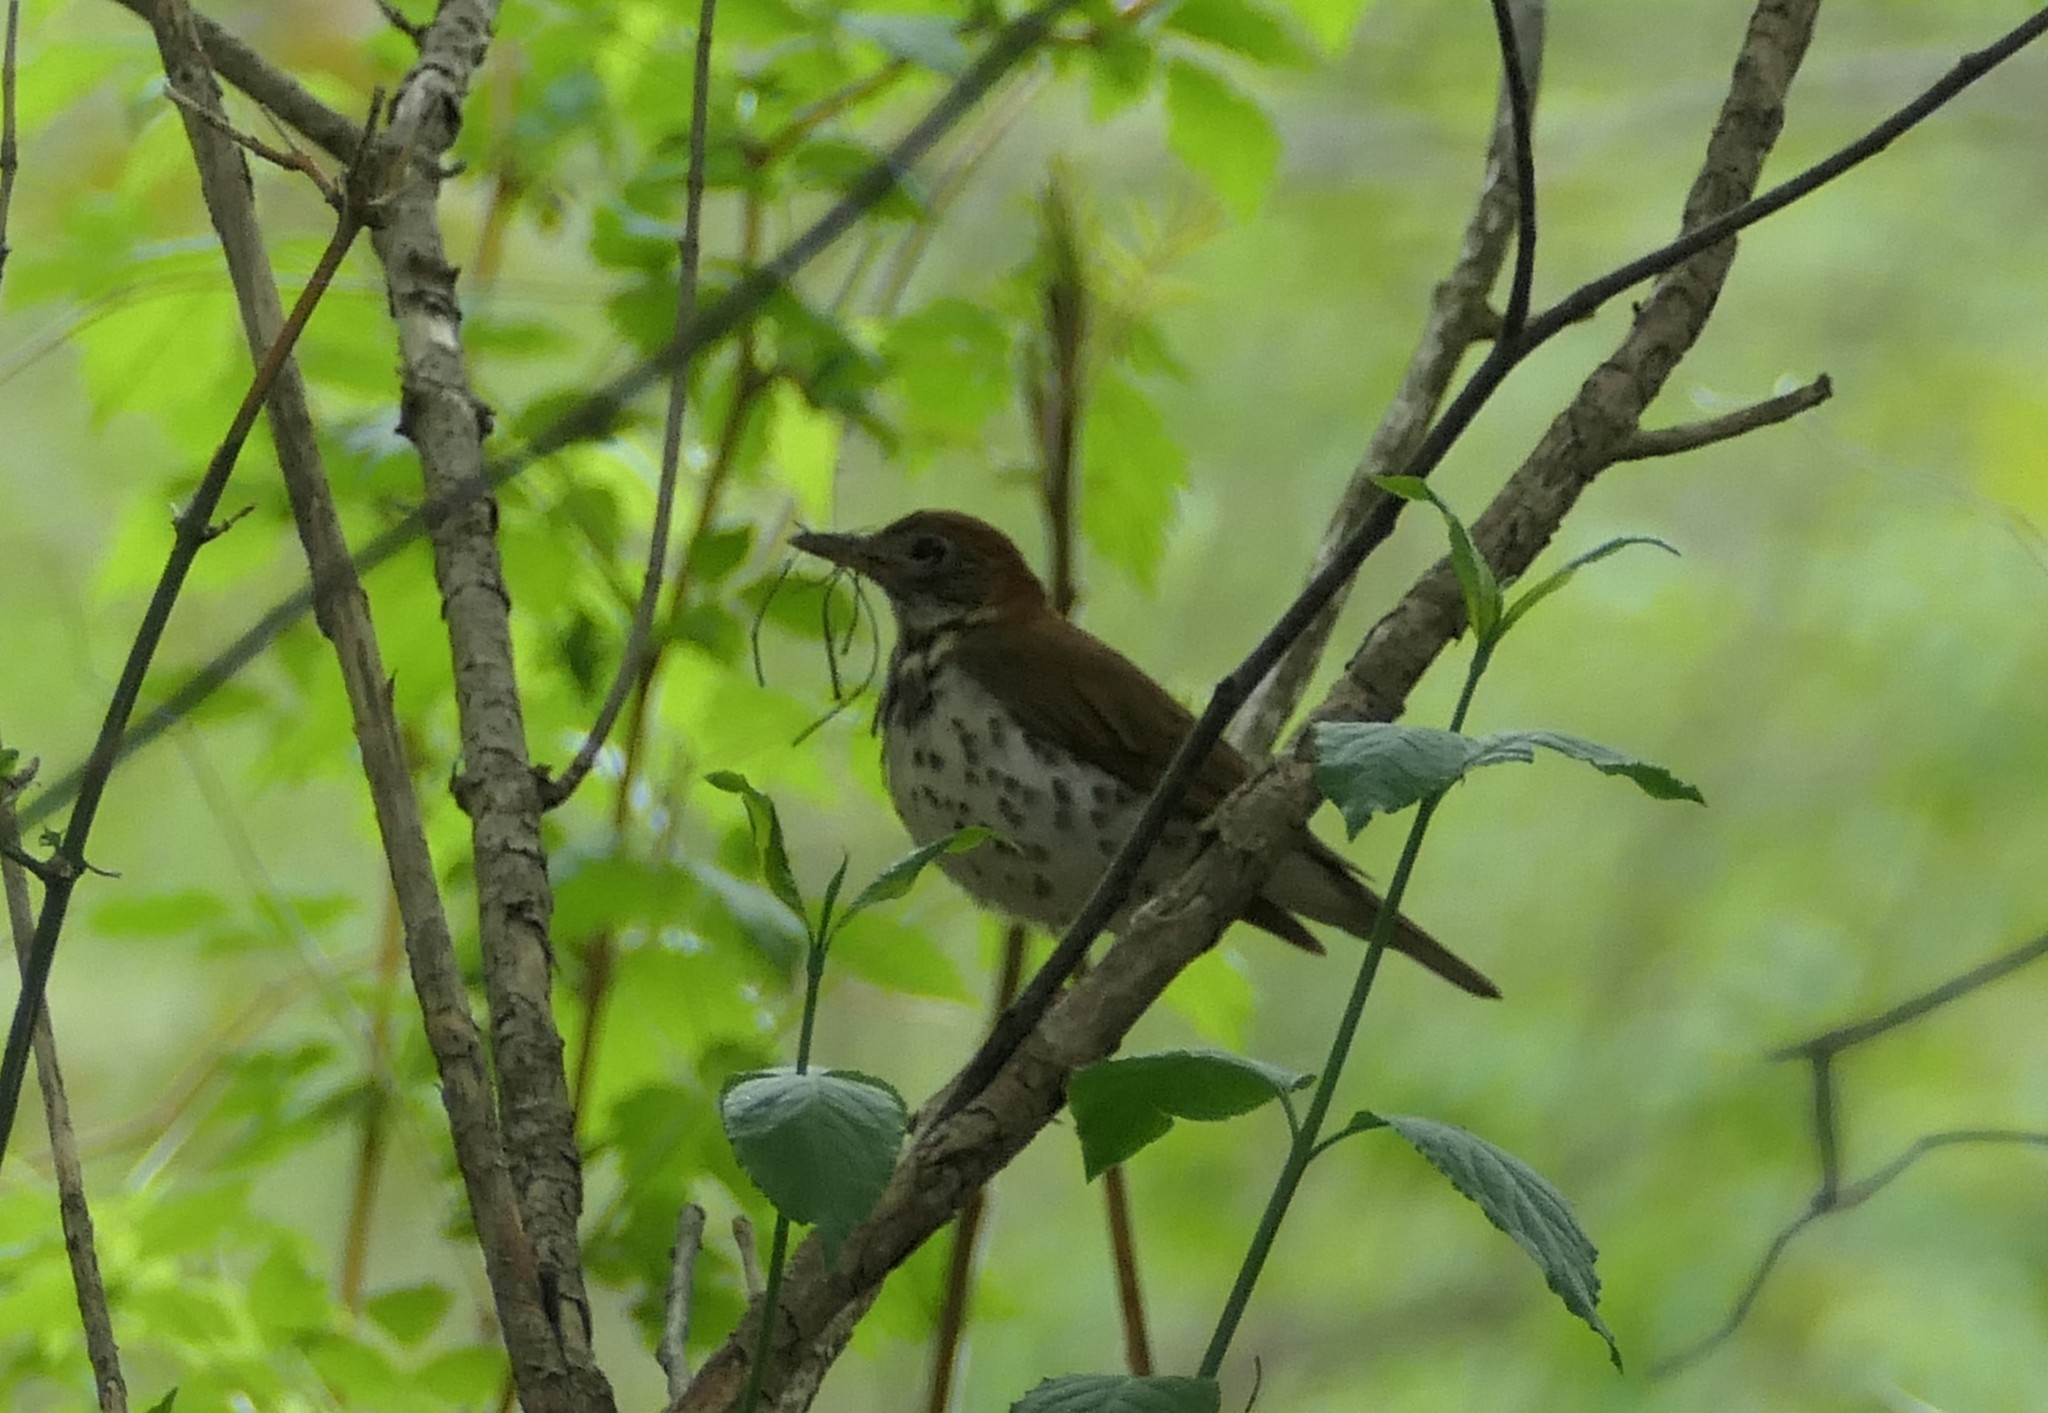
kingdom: Animalia
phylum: Chordata
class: Aves
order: Passeriformes
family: Turdidae
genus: Hylocichla
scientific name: Hylocichla mustelina
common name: Wood thrush
